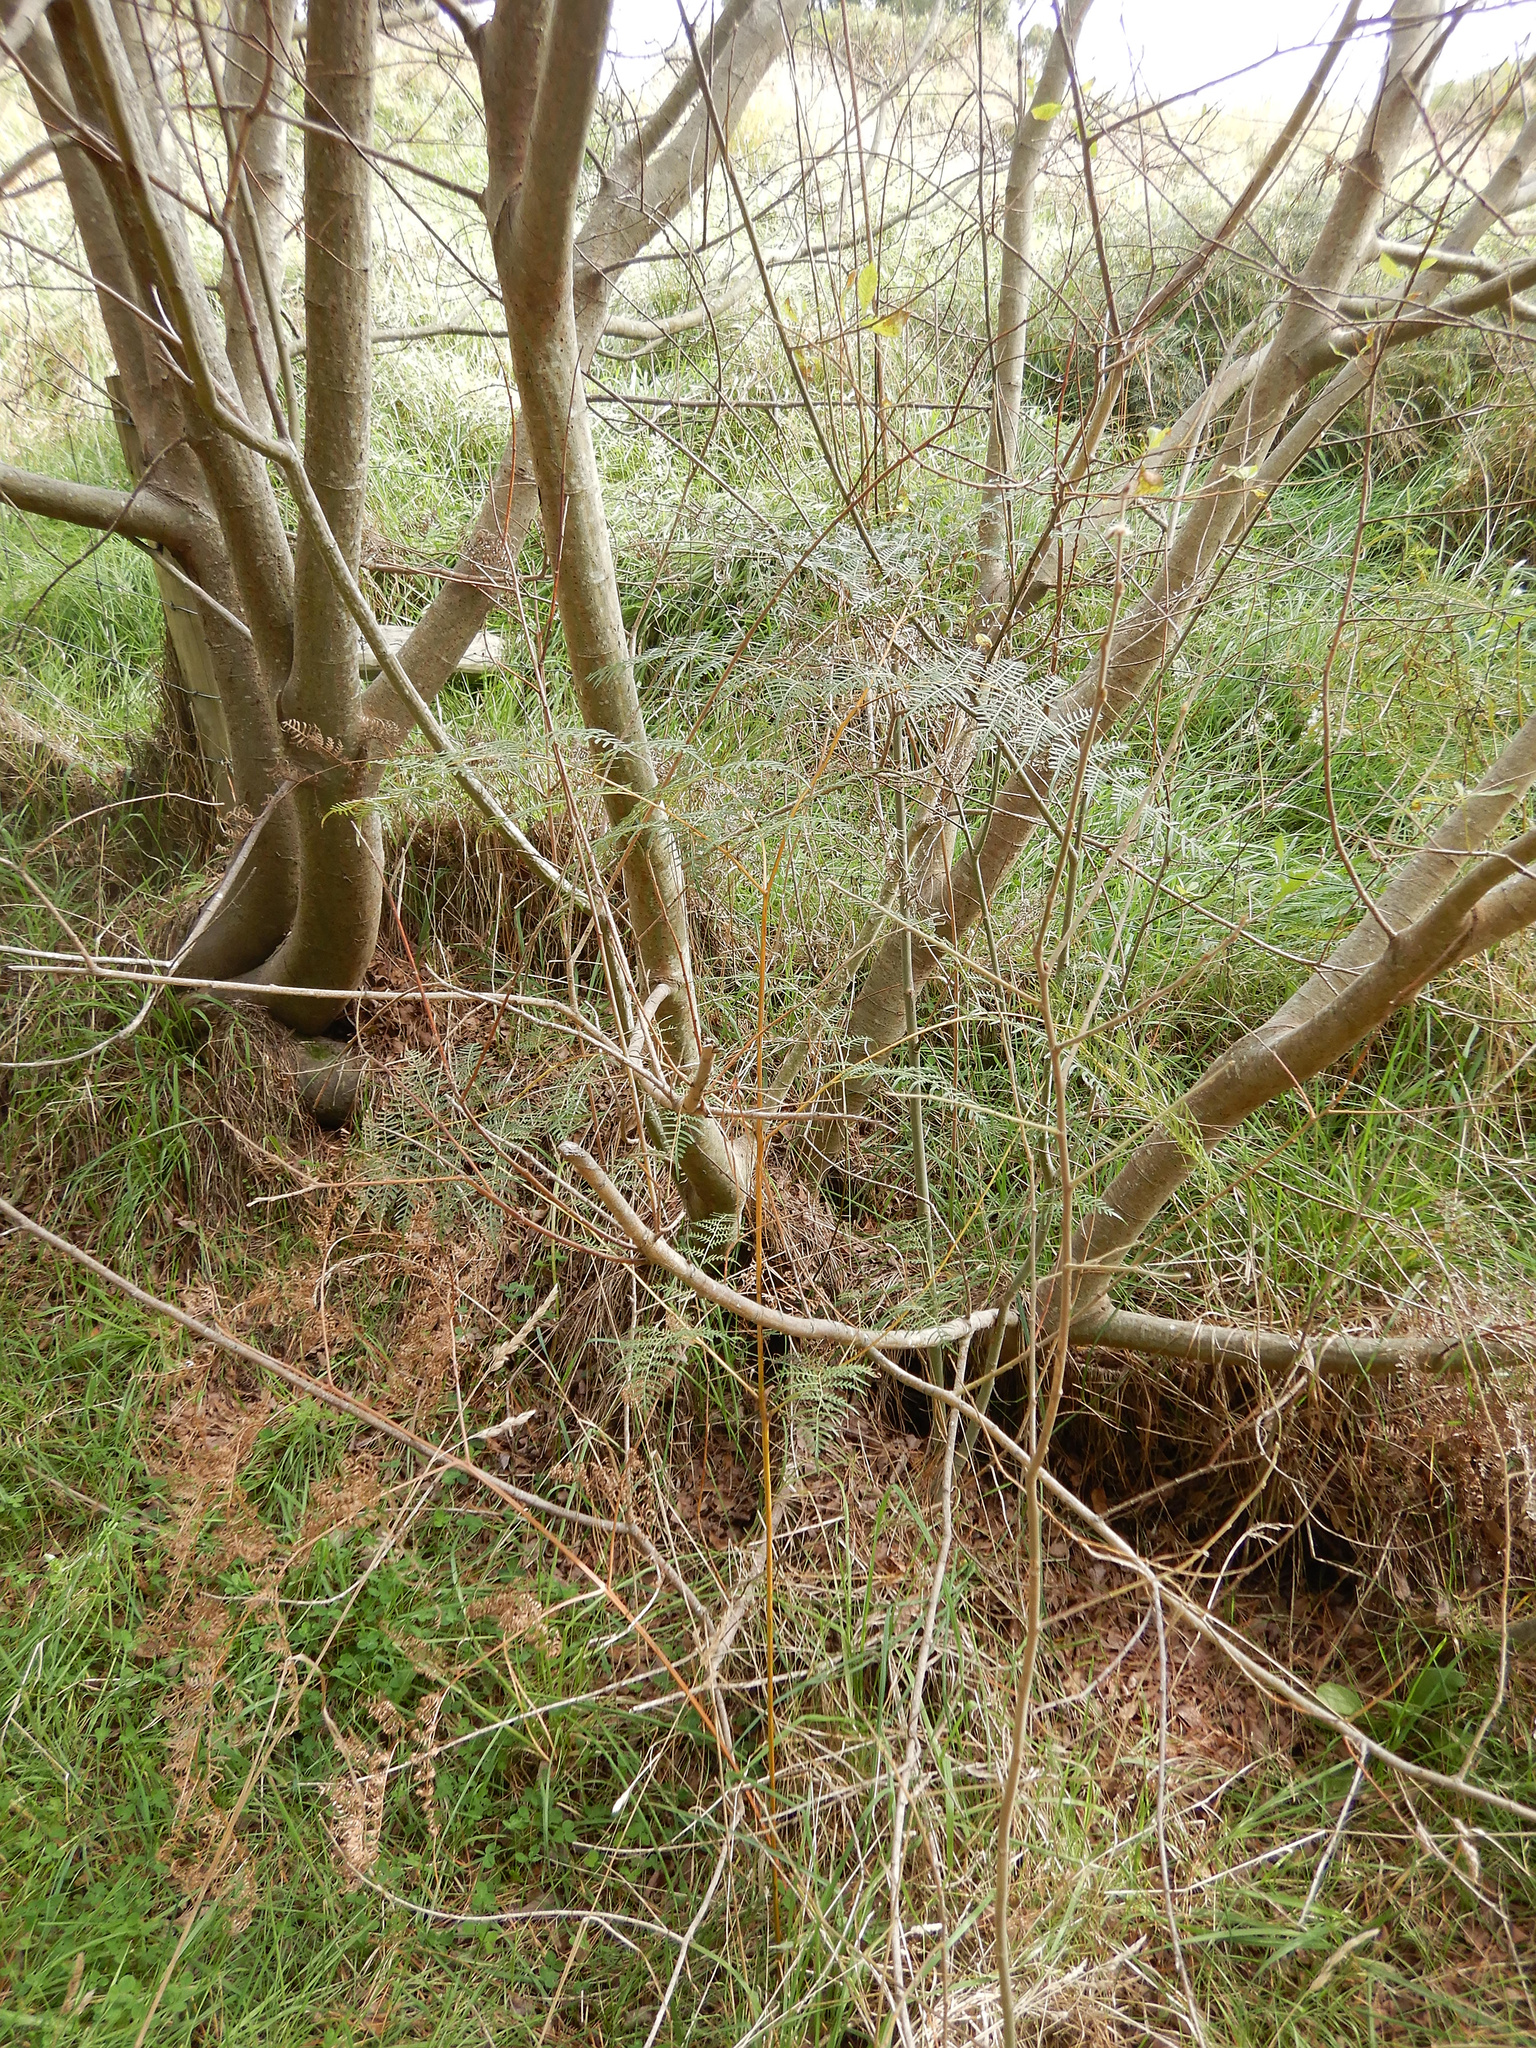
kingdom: Plantae
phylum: Tracheophyta
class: Polypodiopsida
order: Polypodiales
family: Dennstaedtiaceae
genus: Pteridium
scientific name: Pteridium esculentum
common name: Bracken fern
